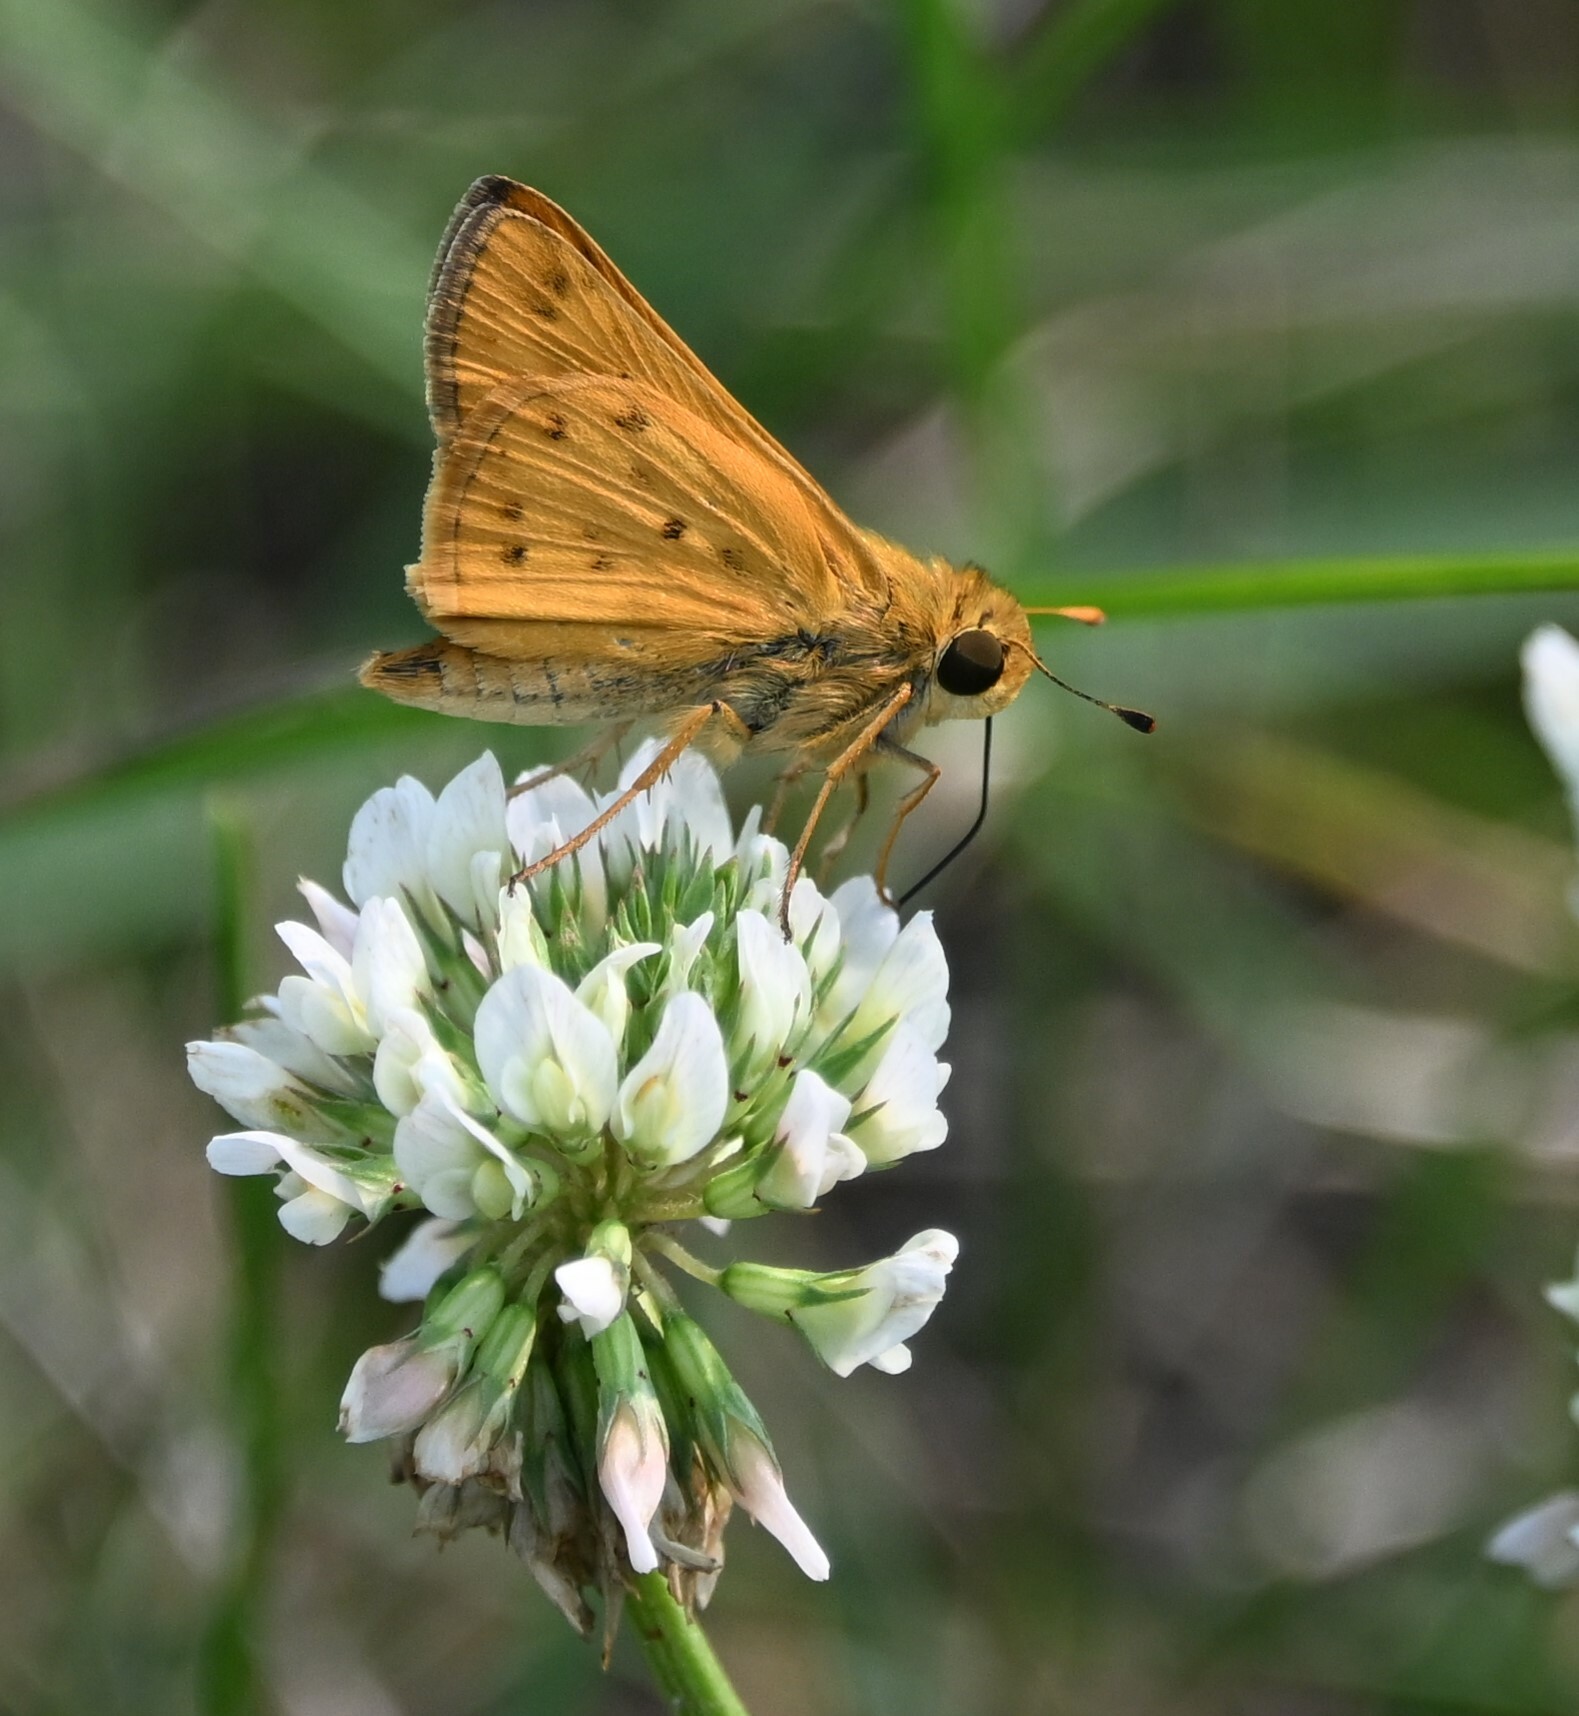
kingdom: Animalia
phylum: Arthropoda
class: Insecta
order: Lepidoptera
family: Hesperiidae
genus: Hylephila
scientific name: Hylephila phyleus
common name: Fiery skipper
